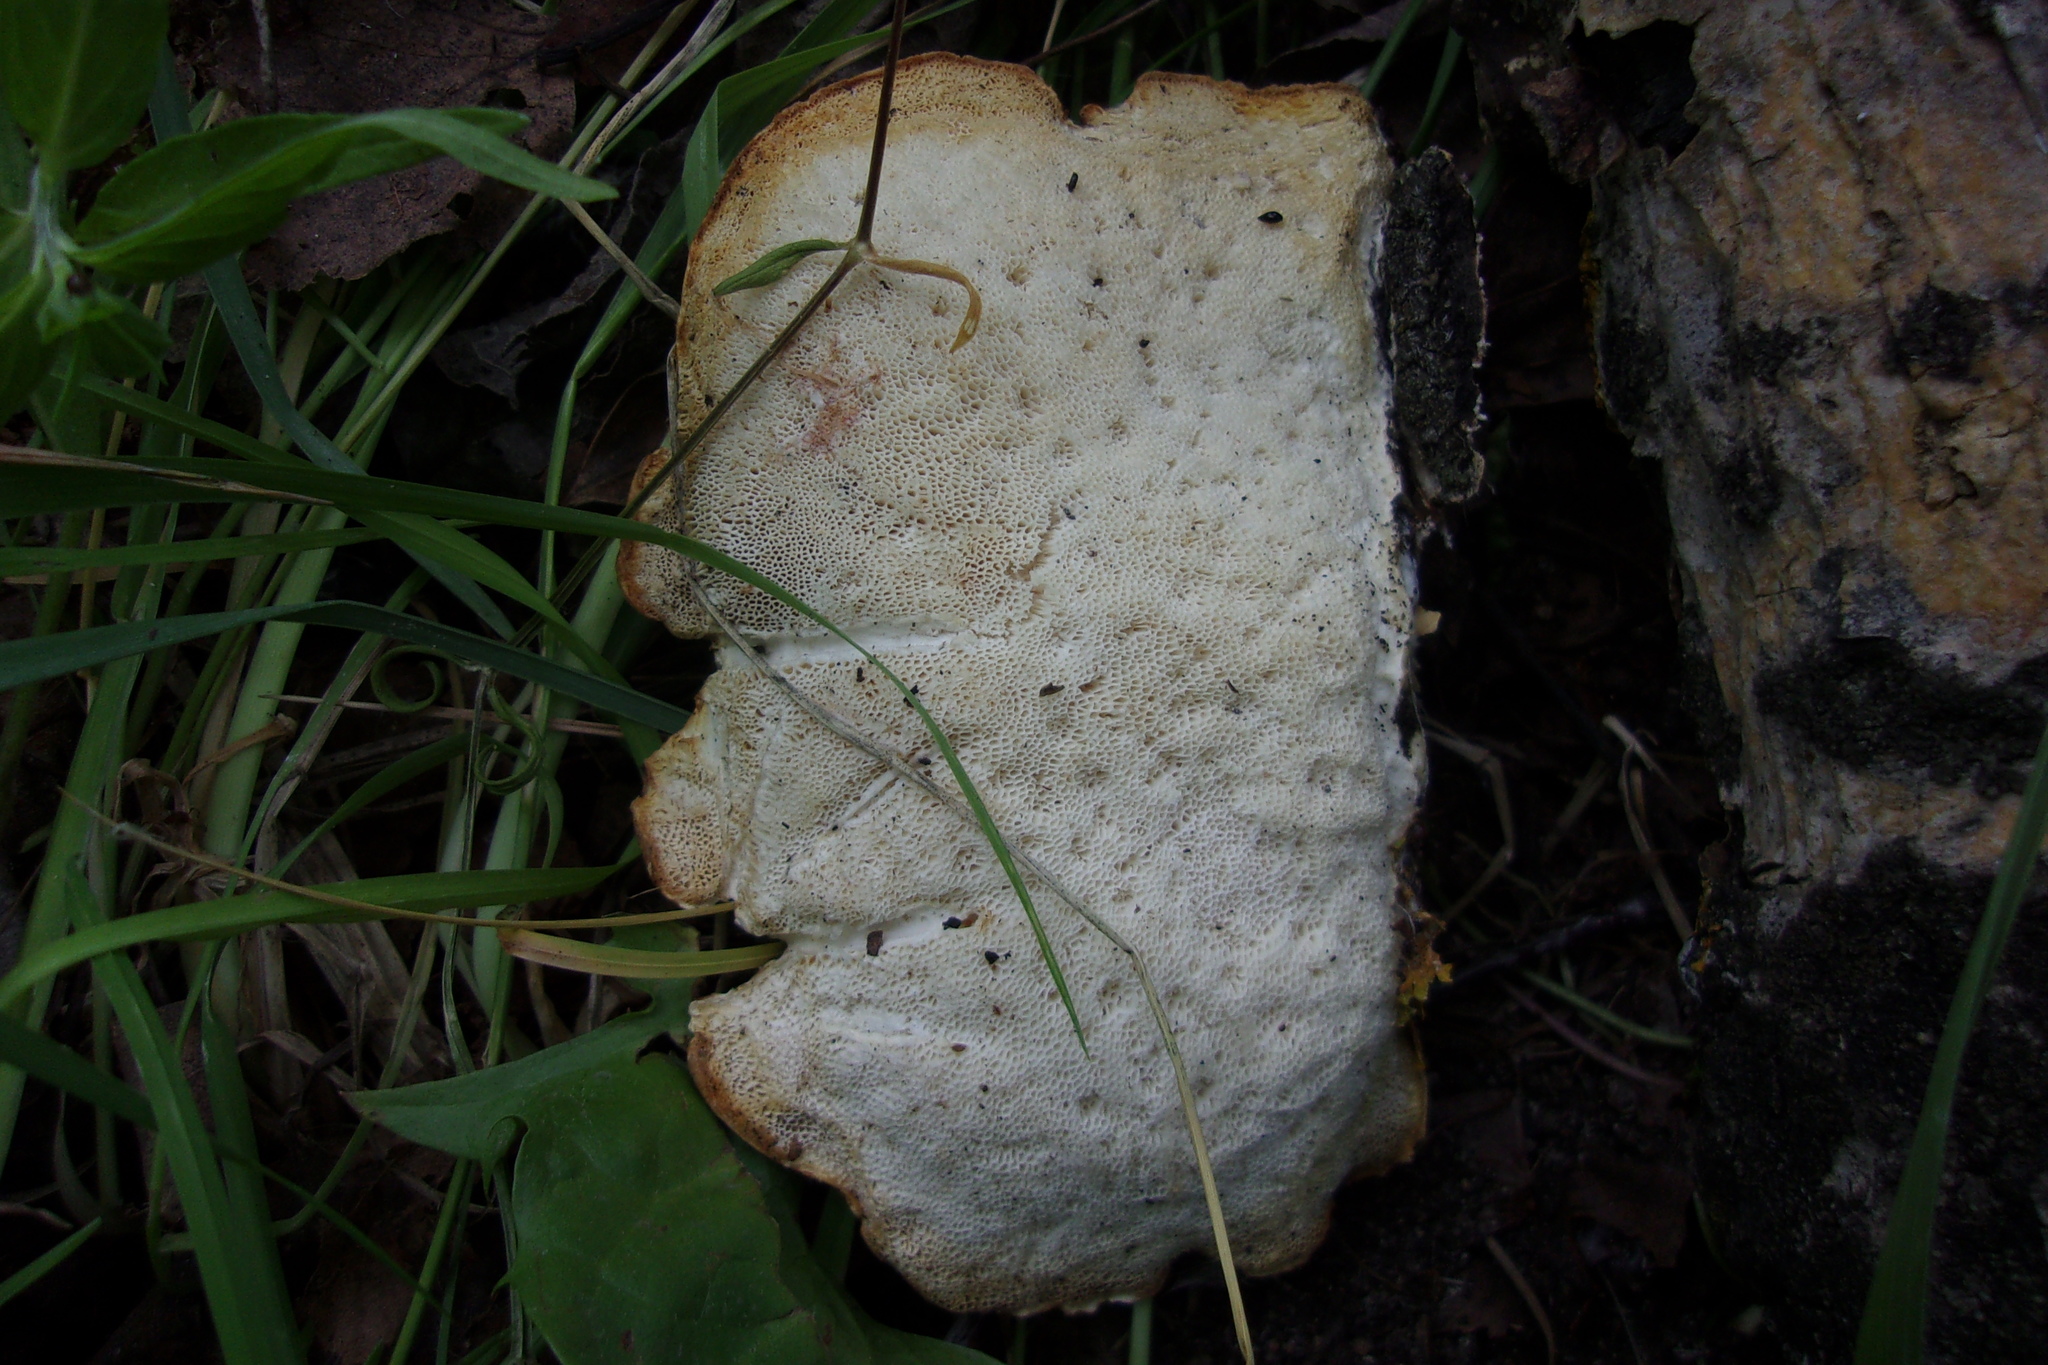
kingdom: Fungi
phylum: Basidiomycota
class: Agaricomycetes
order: Polyporales
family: Polyporaceae
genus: Favolus
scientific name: Favolus pseudobetulinus
